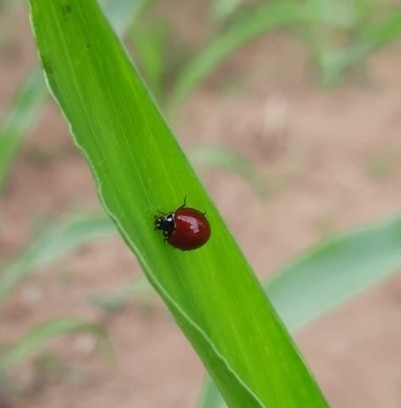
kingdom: Animalia
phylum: Arthropoda
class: Insecta
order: Coleoptera
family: Coccinellidae
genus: Cycloneda
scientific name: Cycloneda sanguinea
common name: Ladybird beetle
